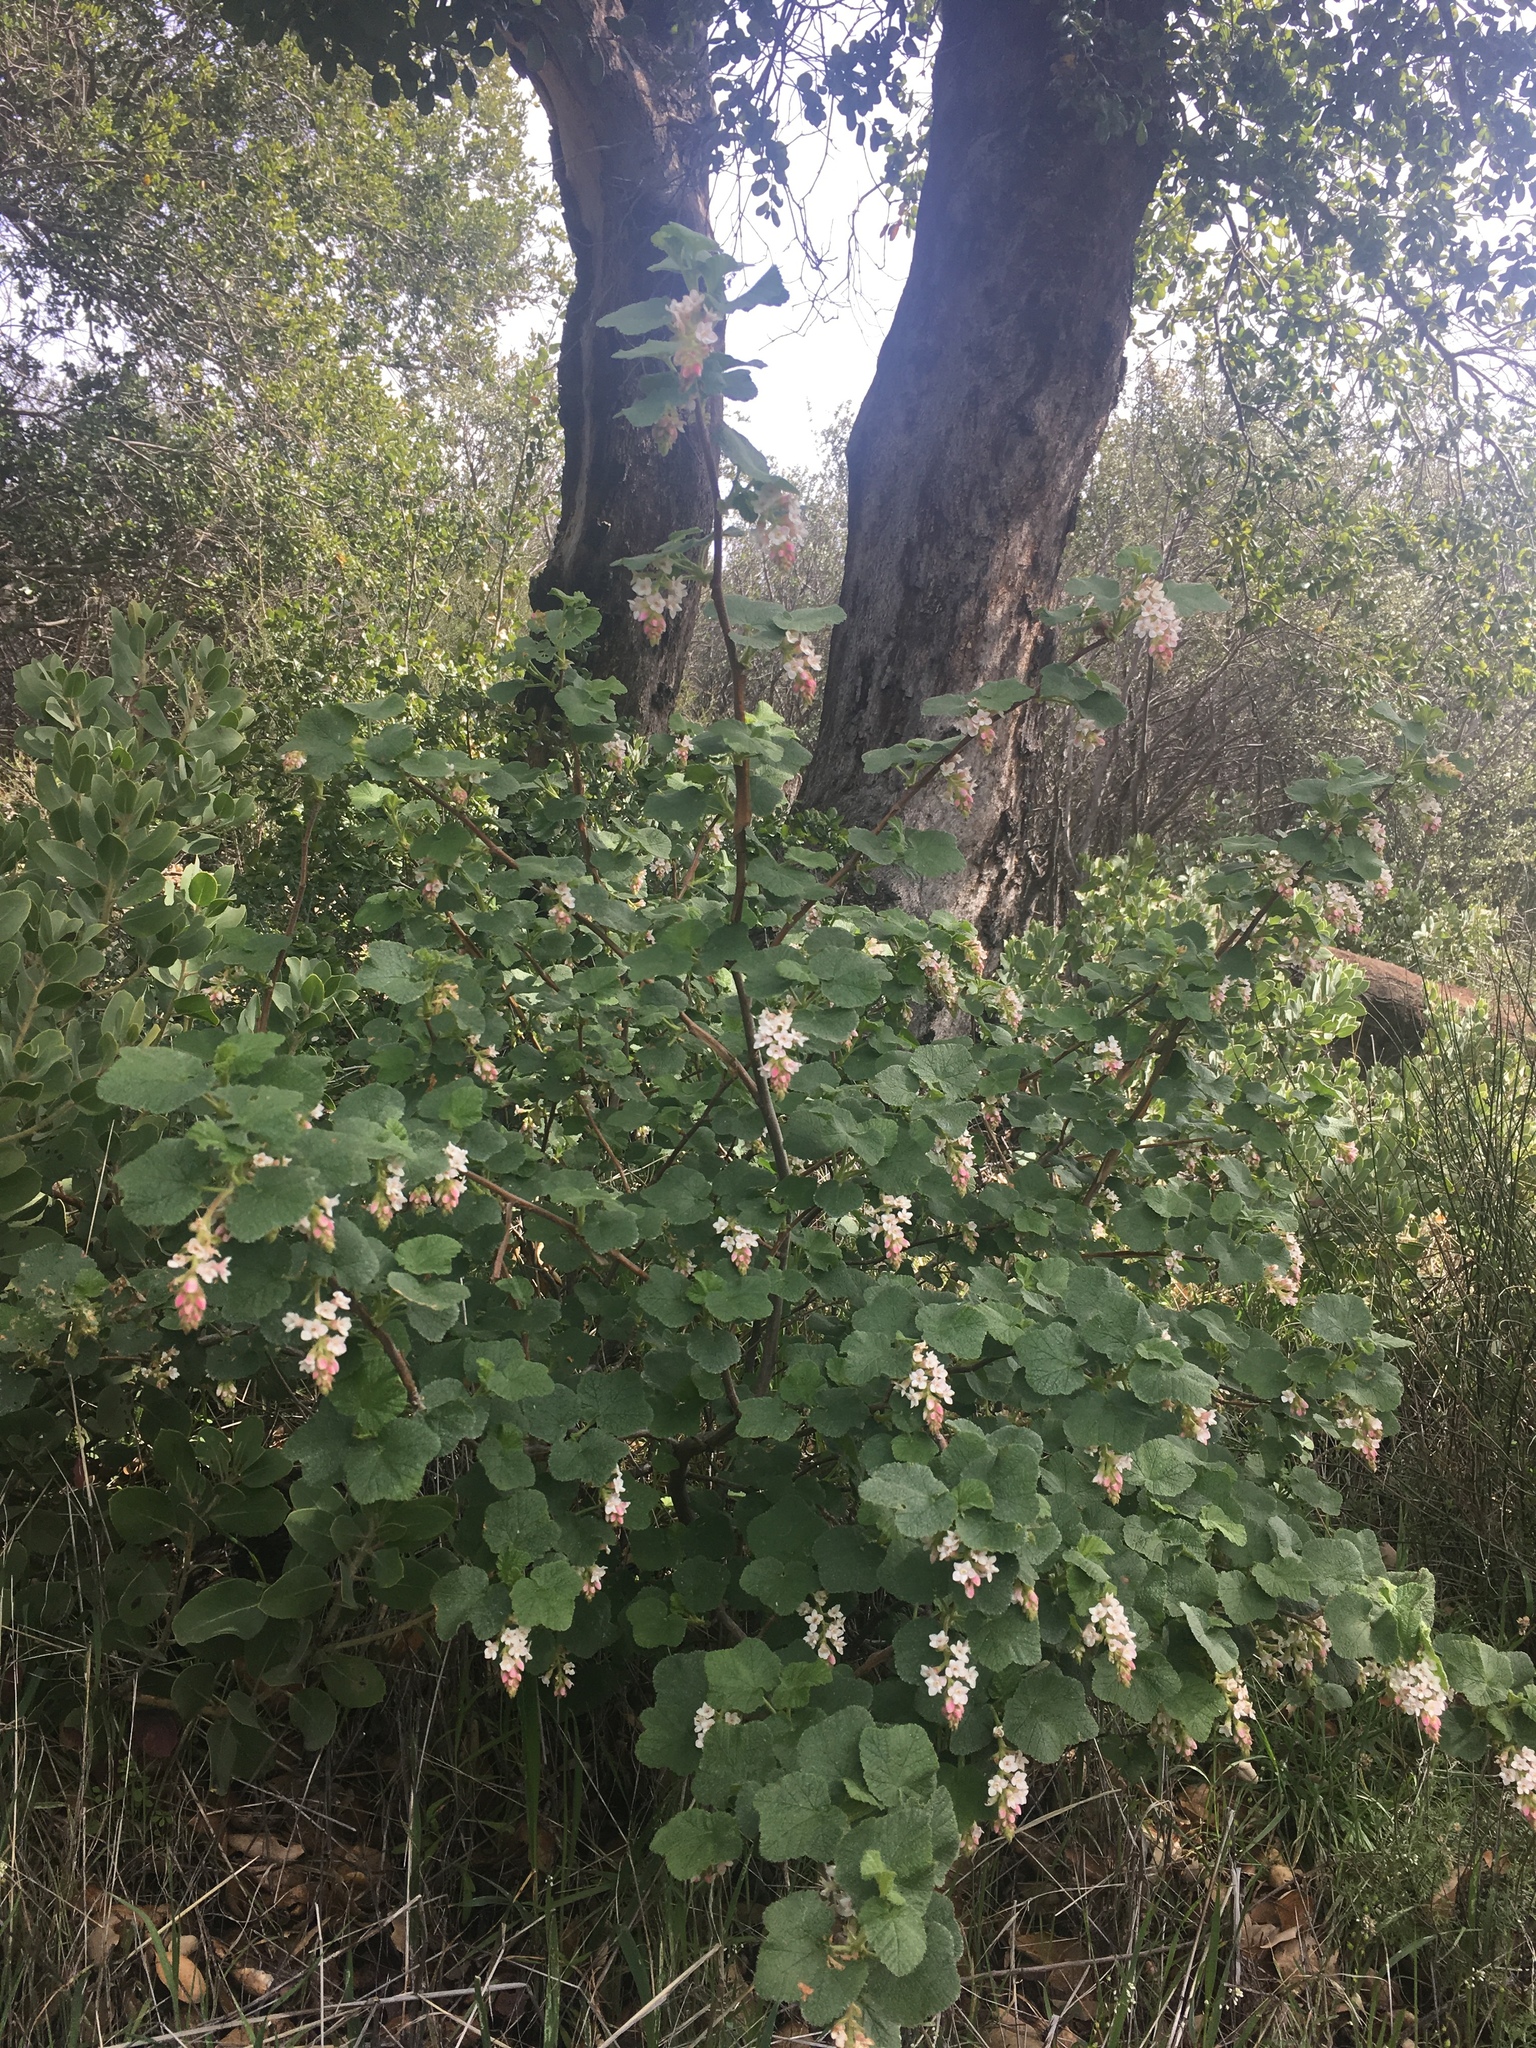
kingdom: Plantae
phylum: Tracheophyta
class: Magnoliopsida
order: Saxifragales
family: Grossulariaceae
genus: Ribes
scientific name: Ribes malvaceum
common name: Chaparral currant
